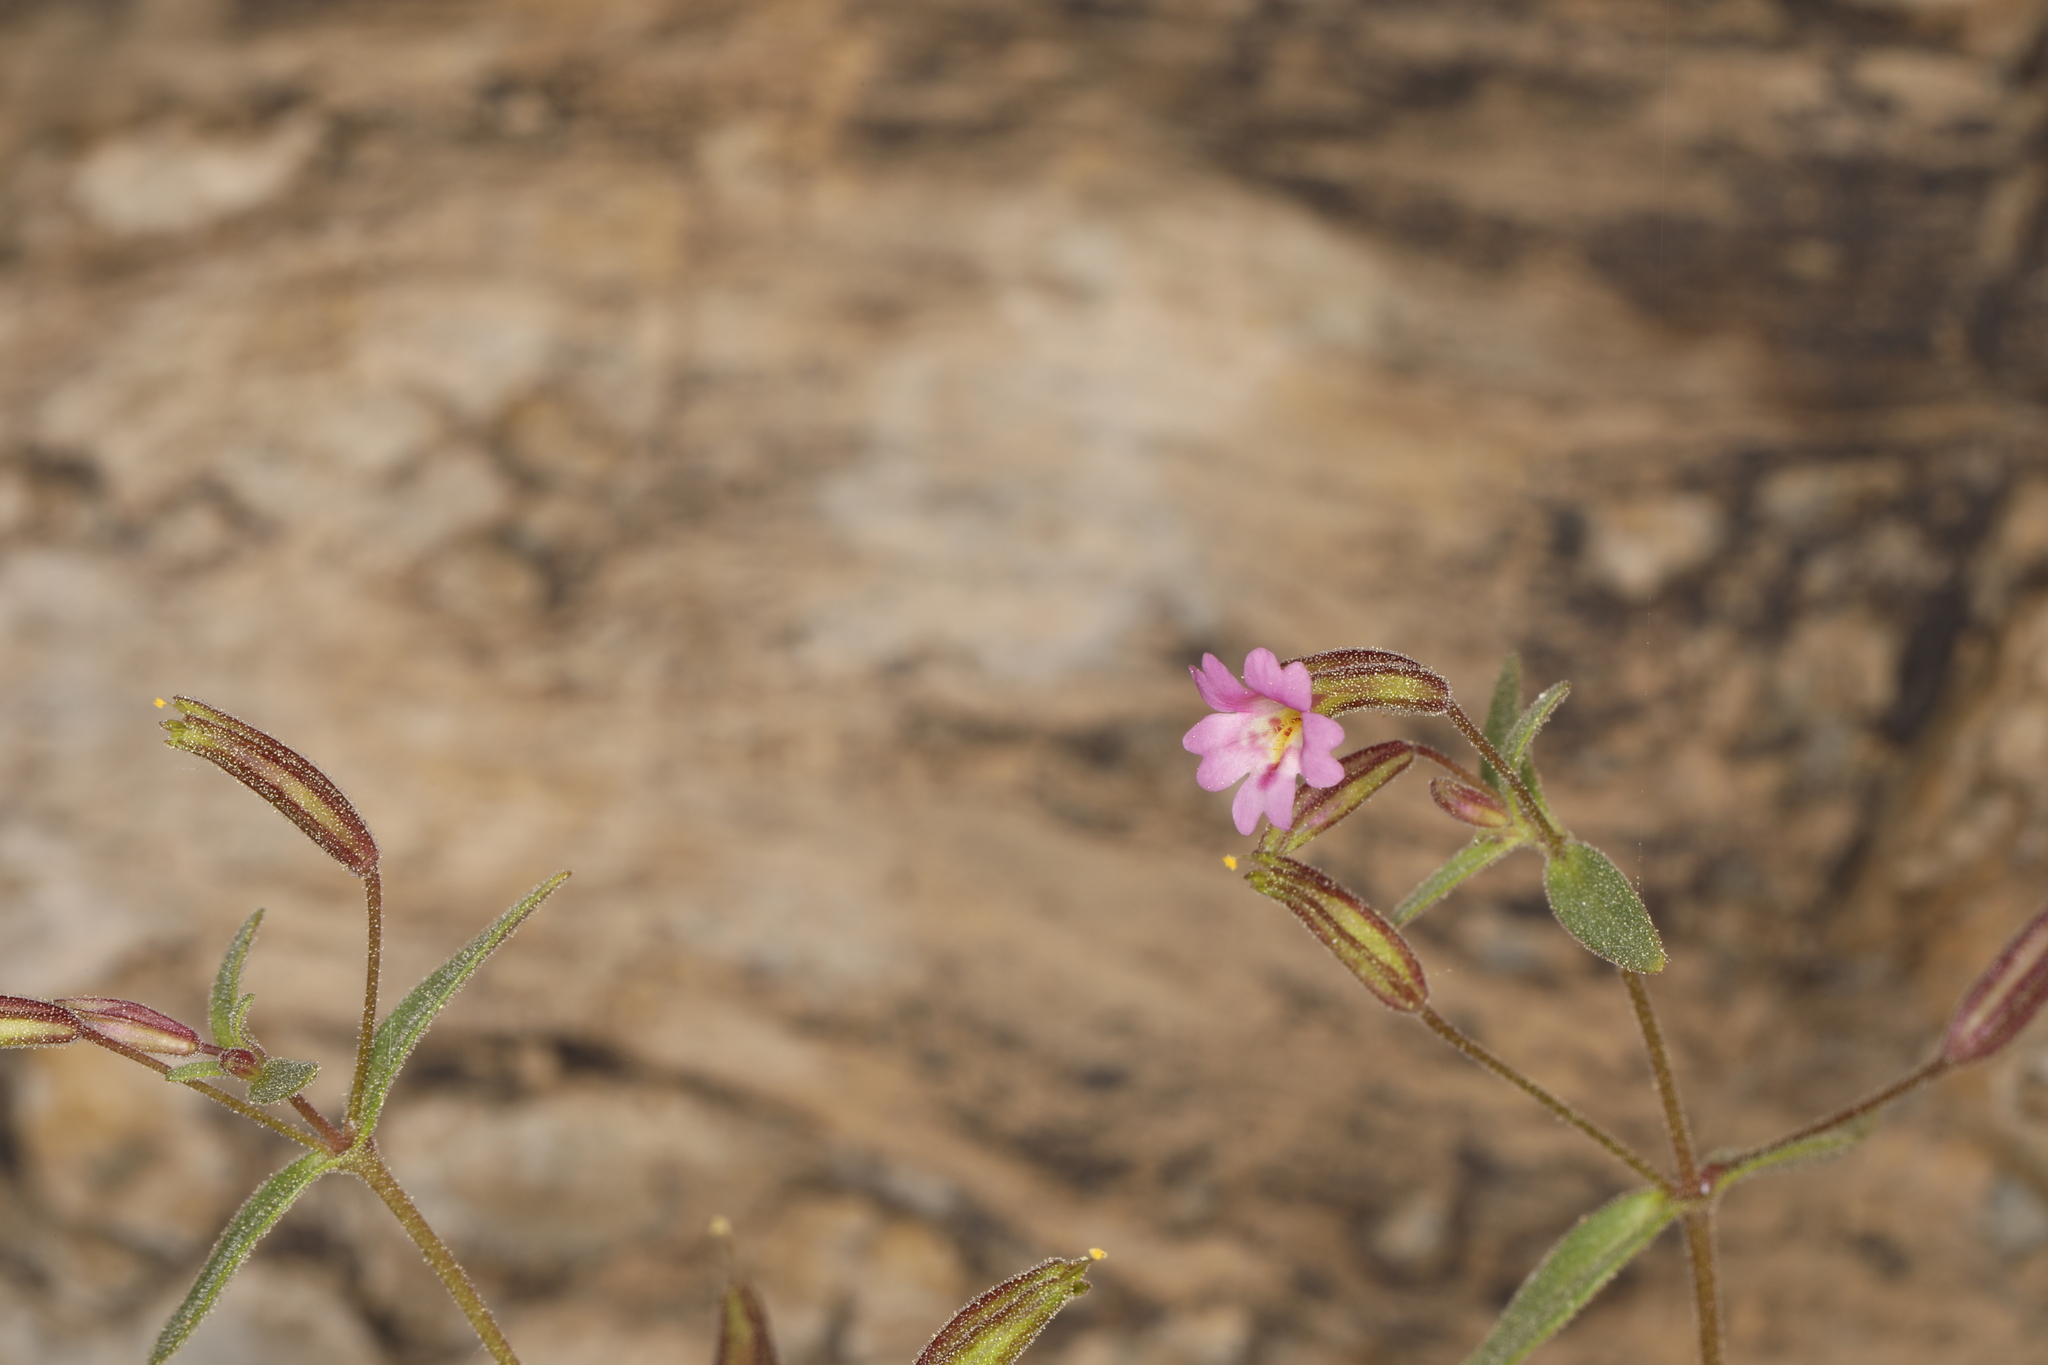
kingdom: Plantae
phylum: Tracheophyta
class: Magnoliopsida
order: Lamiales
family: Phrymaceae
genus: Erythranthe
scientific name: Erythranthe rubella
